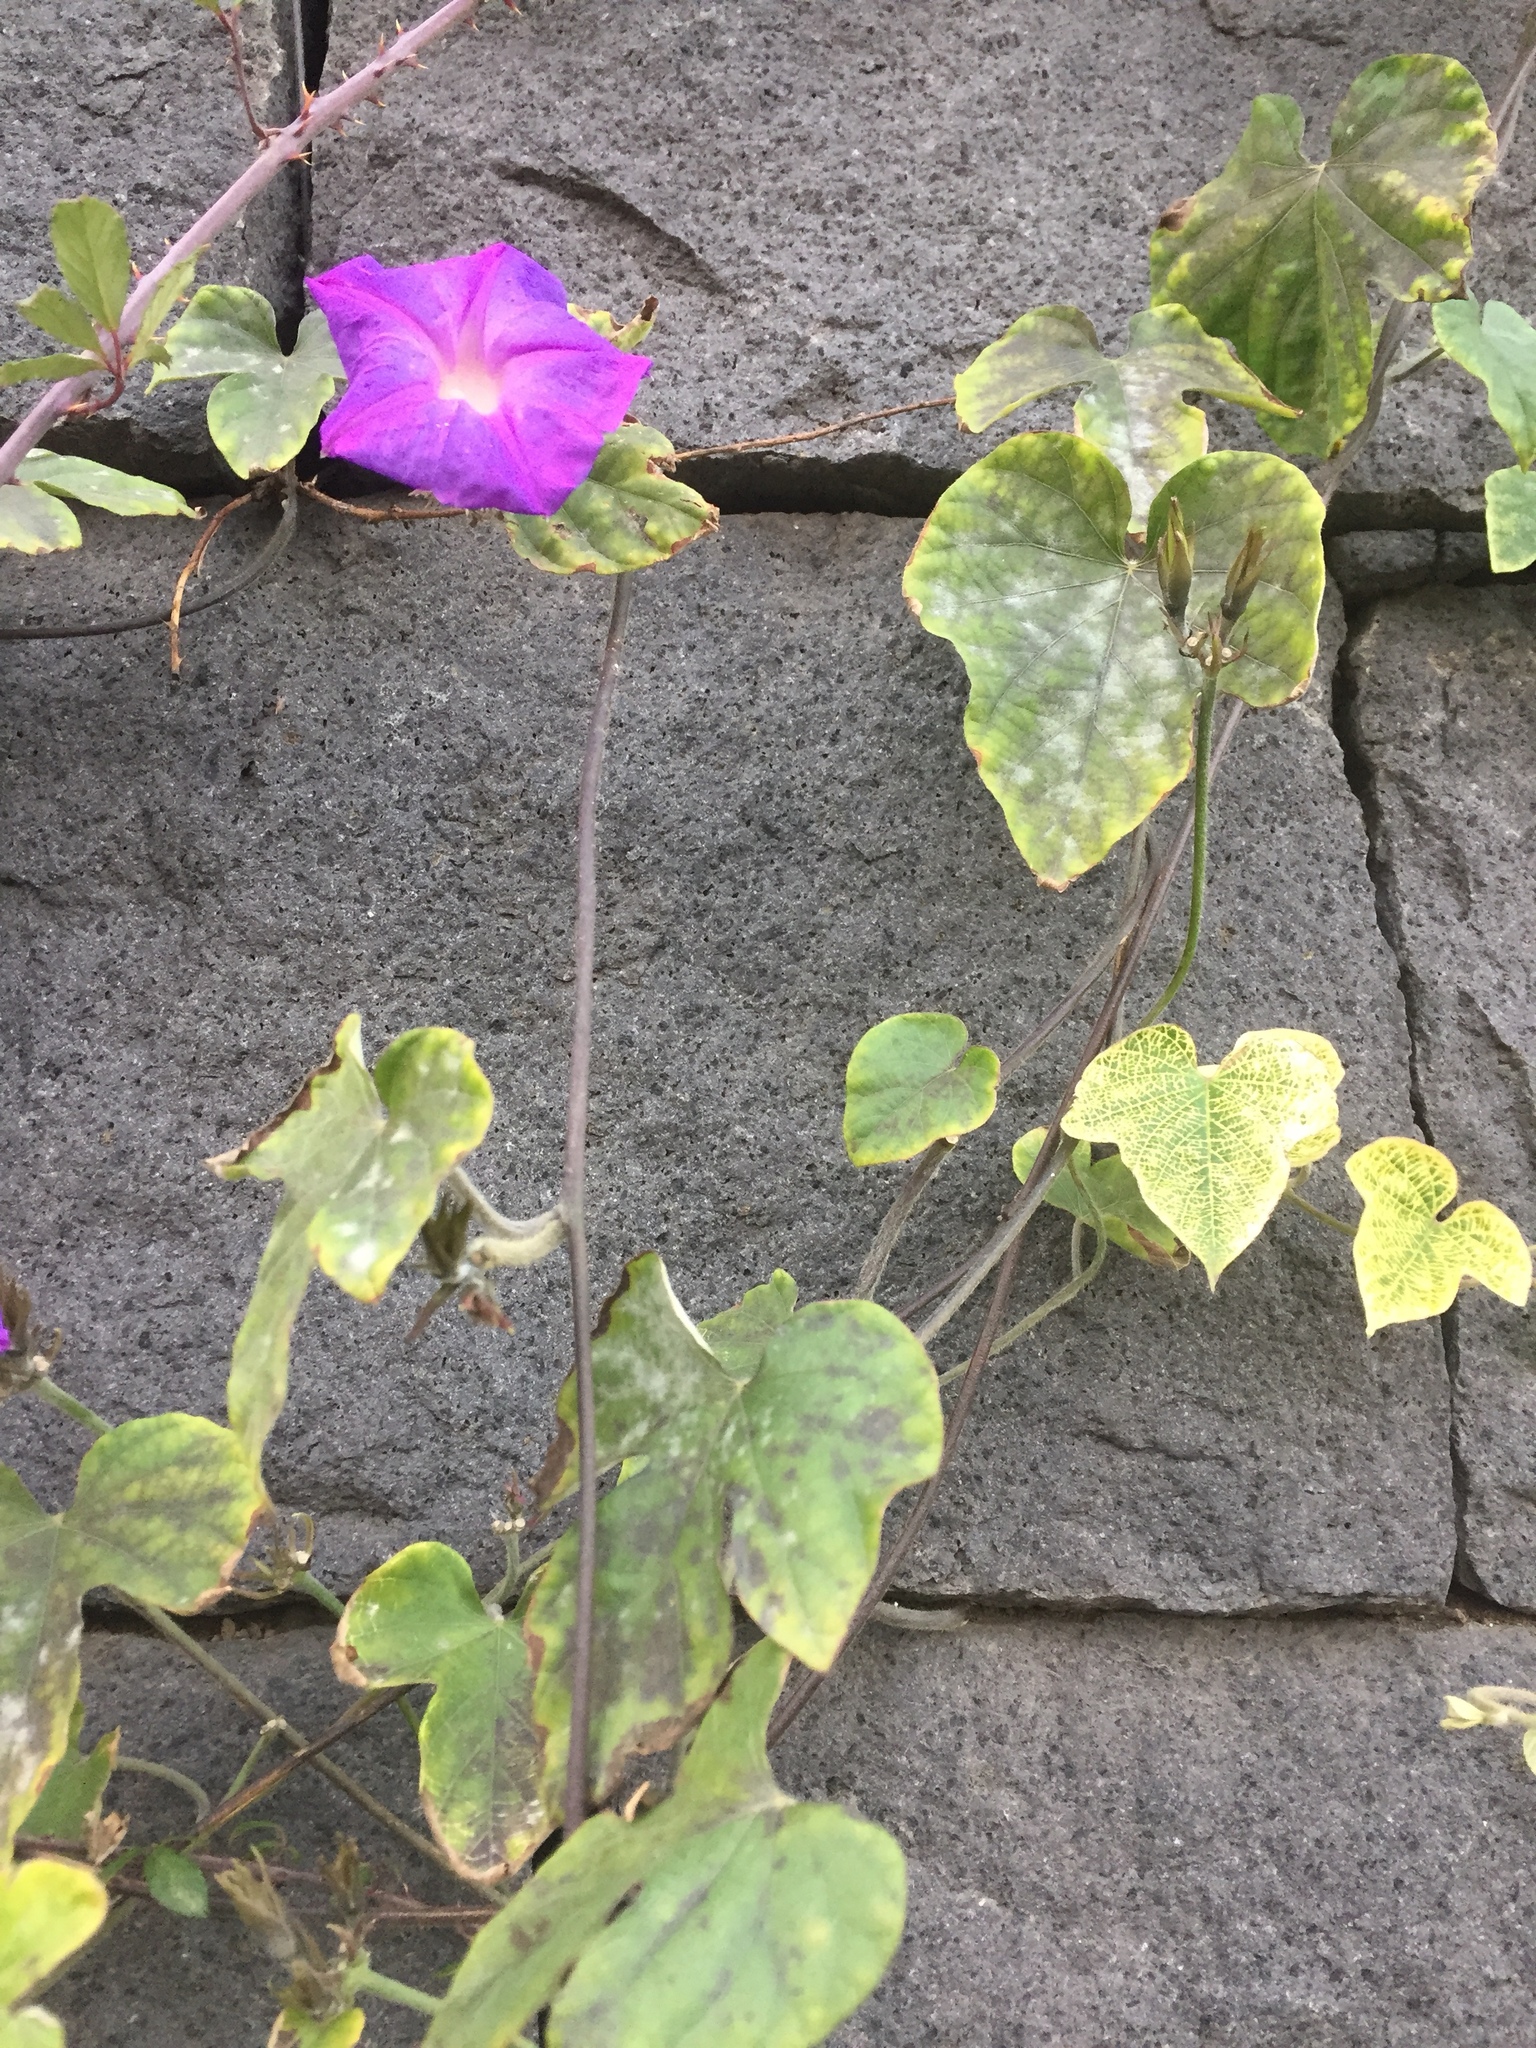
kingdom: Plantae
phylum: Tracheophyta
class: Magnoliopsida
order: Solanales
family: Convolvulaceae
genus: Ipomoea
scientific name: Ipomoea indica
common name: Blue dawnflower
